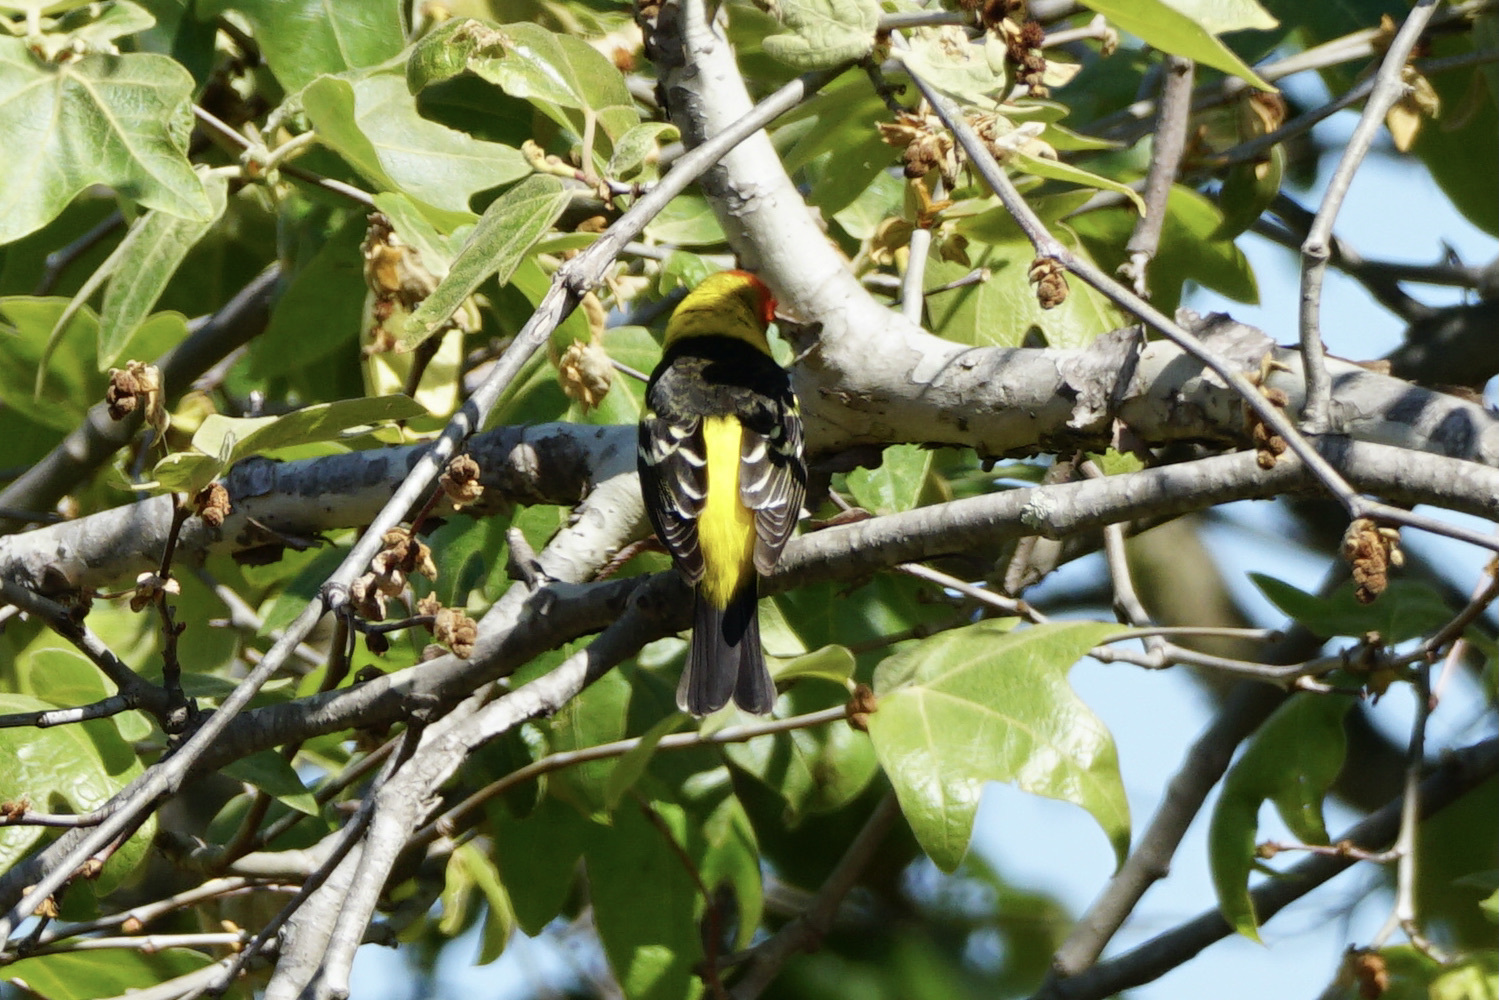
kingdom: Animalia
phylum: Chordata
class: Aves
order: Passeriformes
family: Cardinalidae
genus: Piranga
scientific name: Piranga ludoviciana
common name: Western tanager
